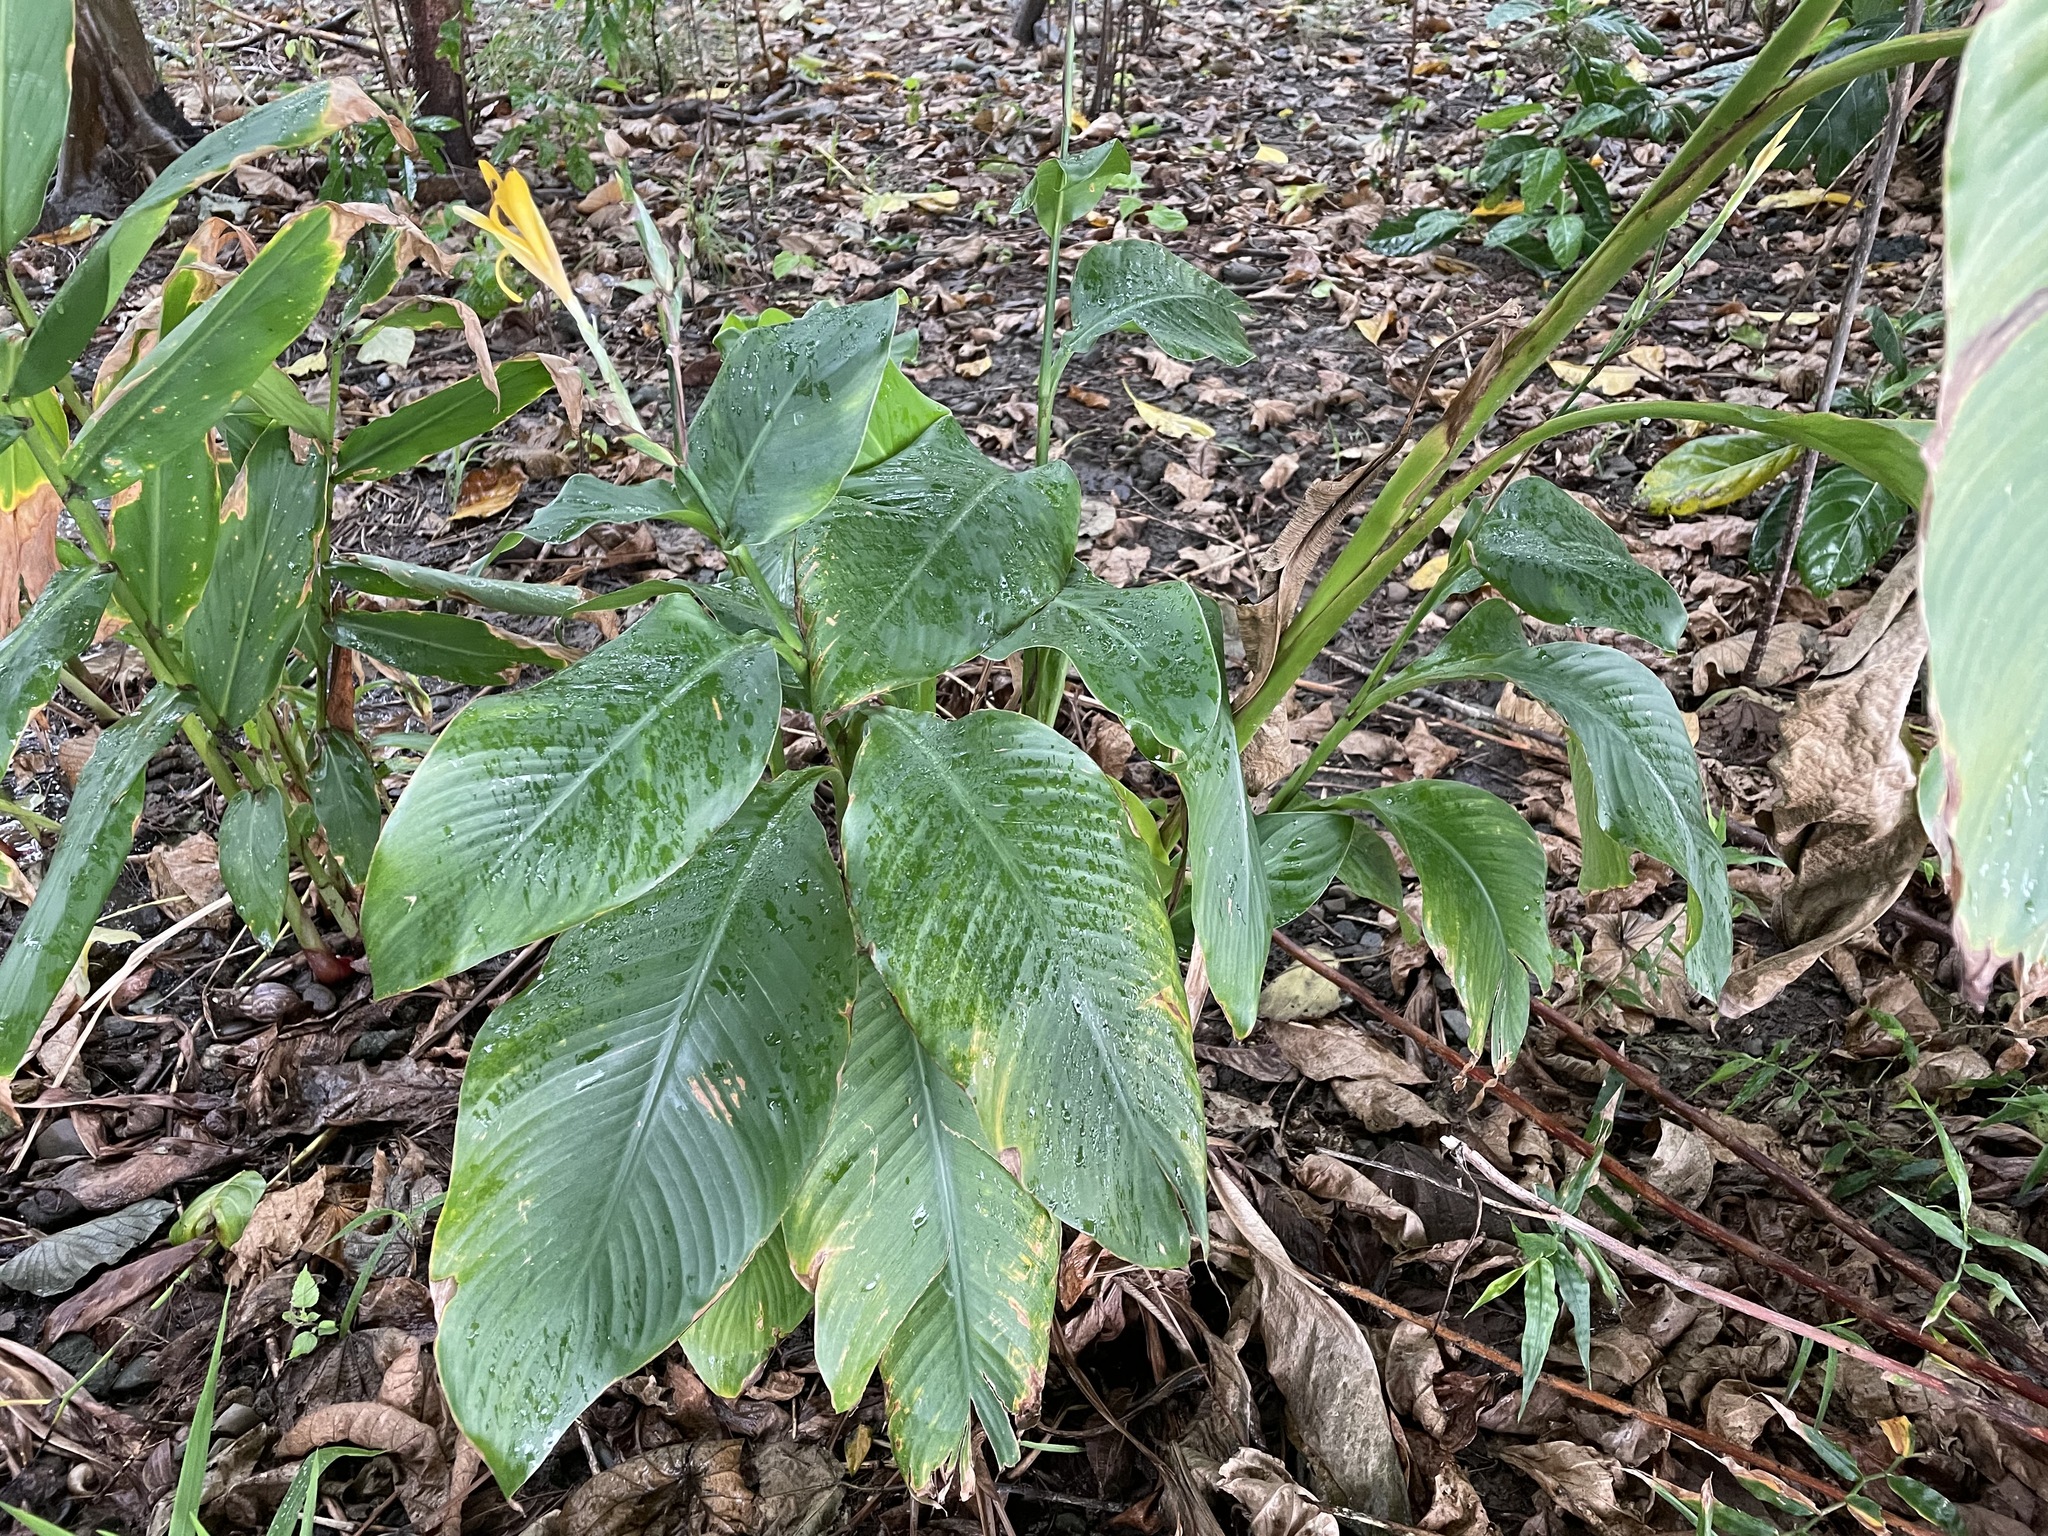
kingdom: Plantae
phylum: Tracheophyta
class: Liliopsida
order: Zingiberales
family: Cannaceae
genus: Canna
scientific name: Canna indica
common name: Indian shot
